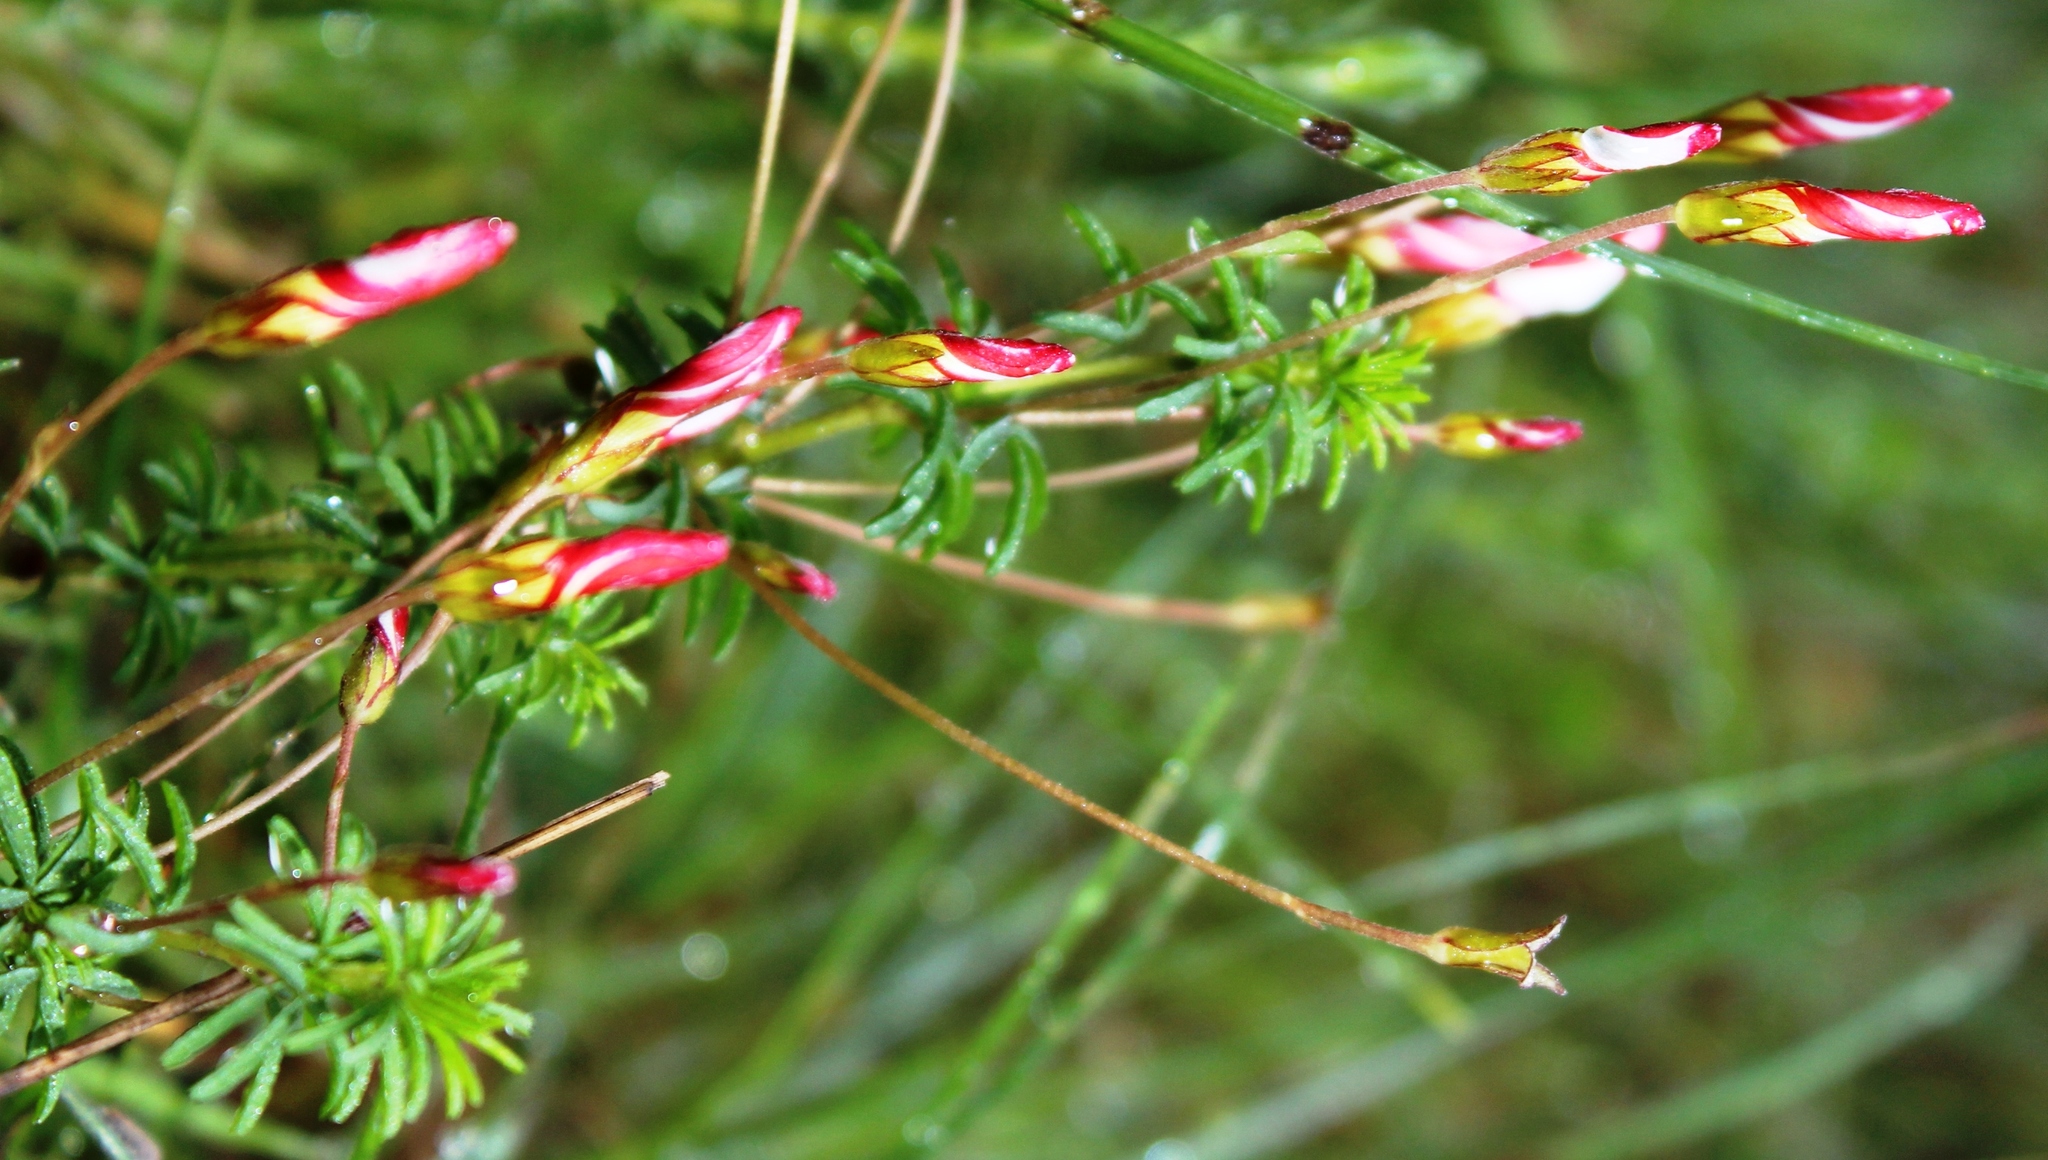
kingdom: Plantae
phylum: Tracheophyta
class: Magnoliopsida
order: Oxalidales
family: Oxalidaceae
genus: Oxalis
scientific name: Oxalis tenuifolia
